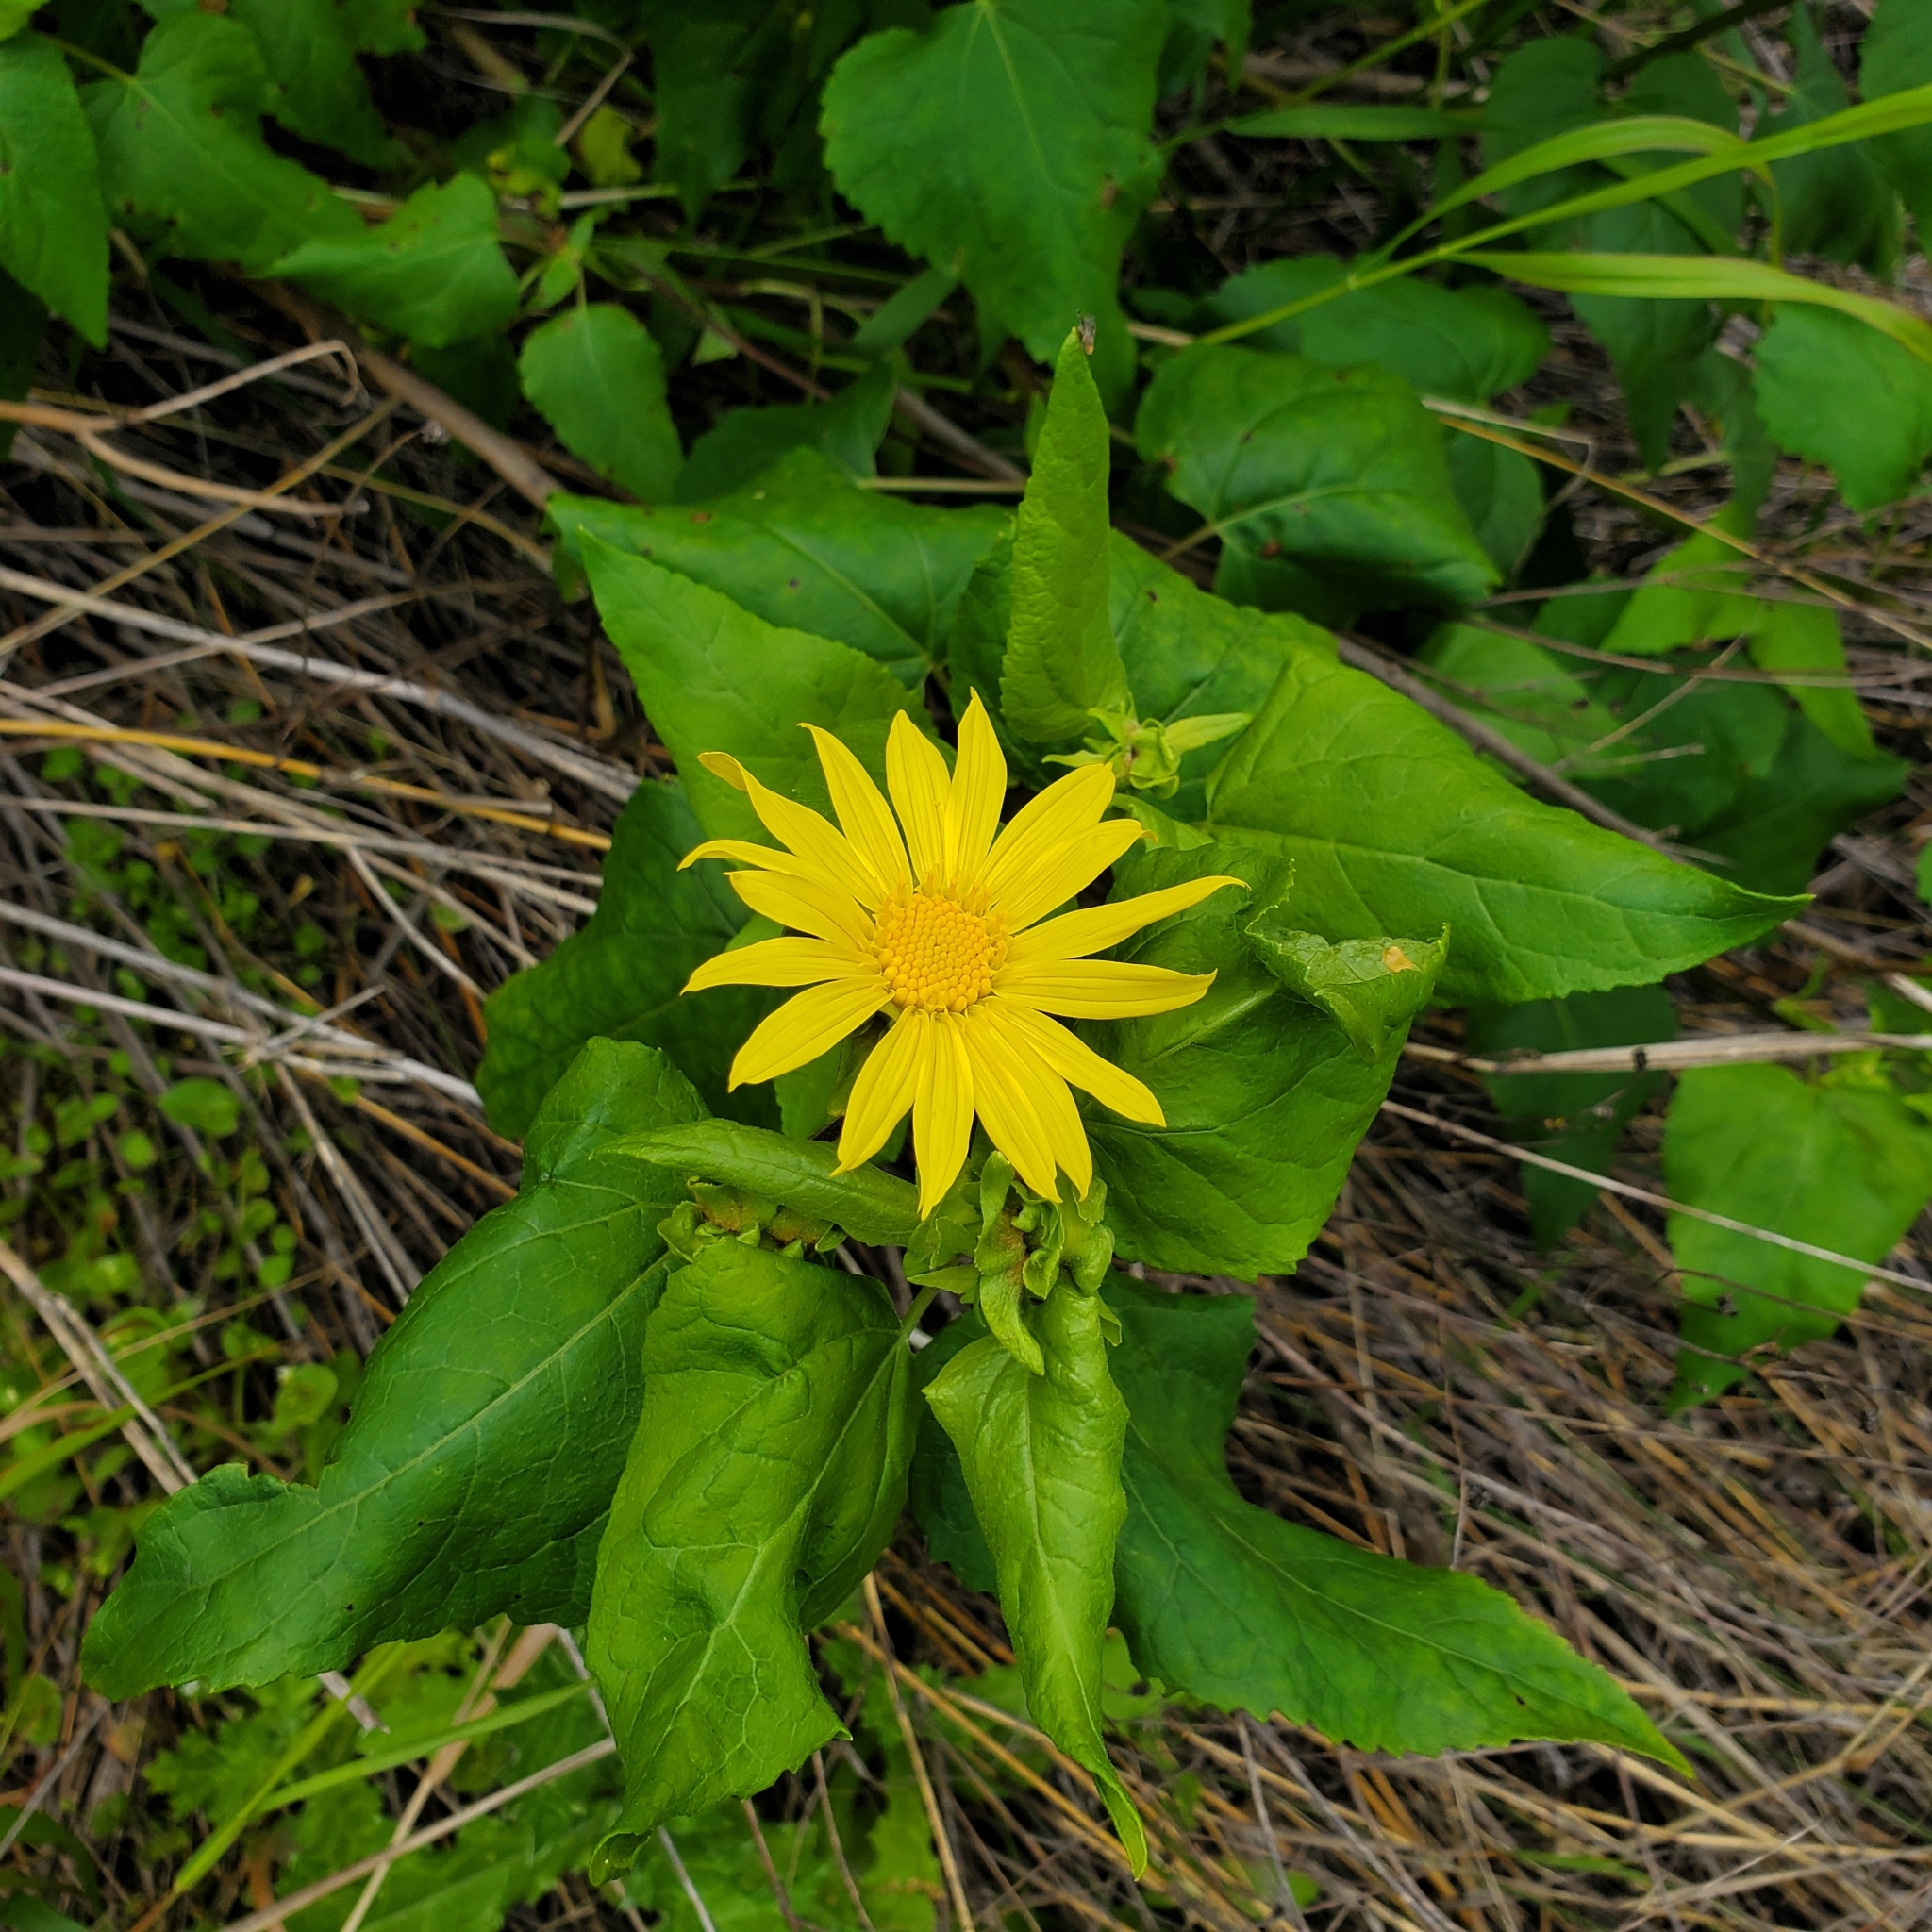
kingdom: Plantae
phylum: Tracheophyta
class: Magnoliopsida
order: Asterales
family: Asteraceae
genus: Venegasia
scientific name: Venegasia carpesioides
